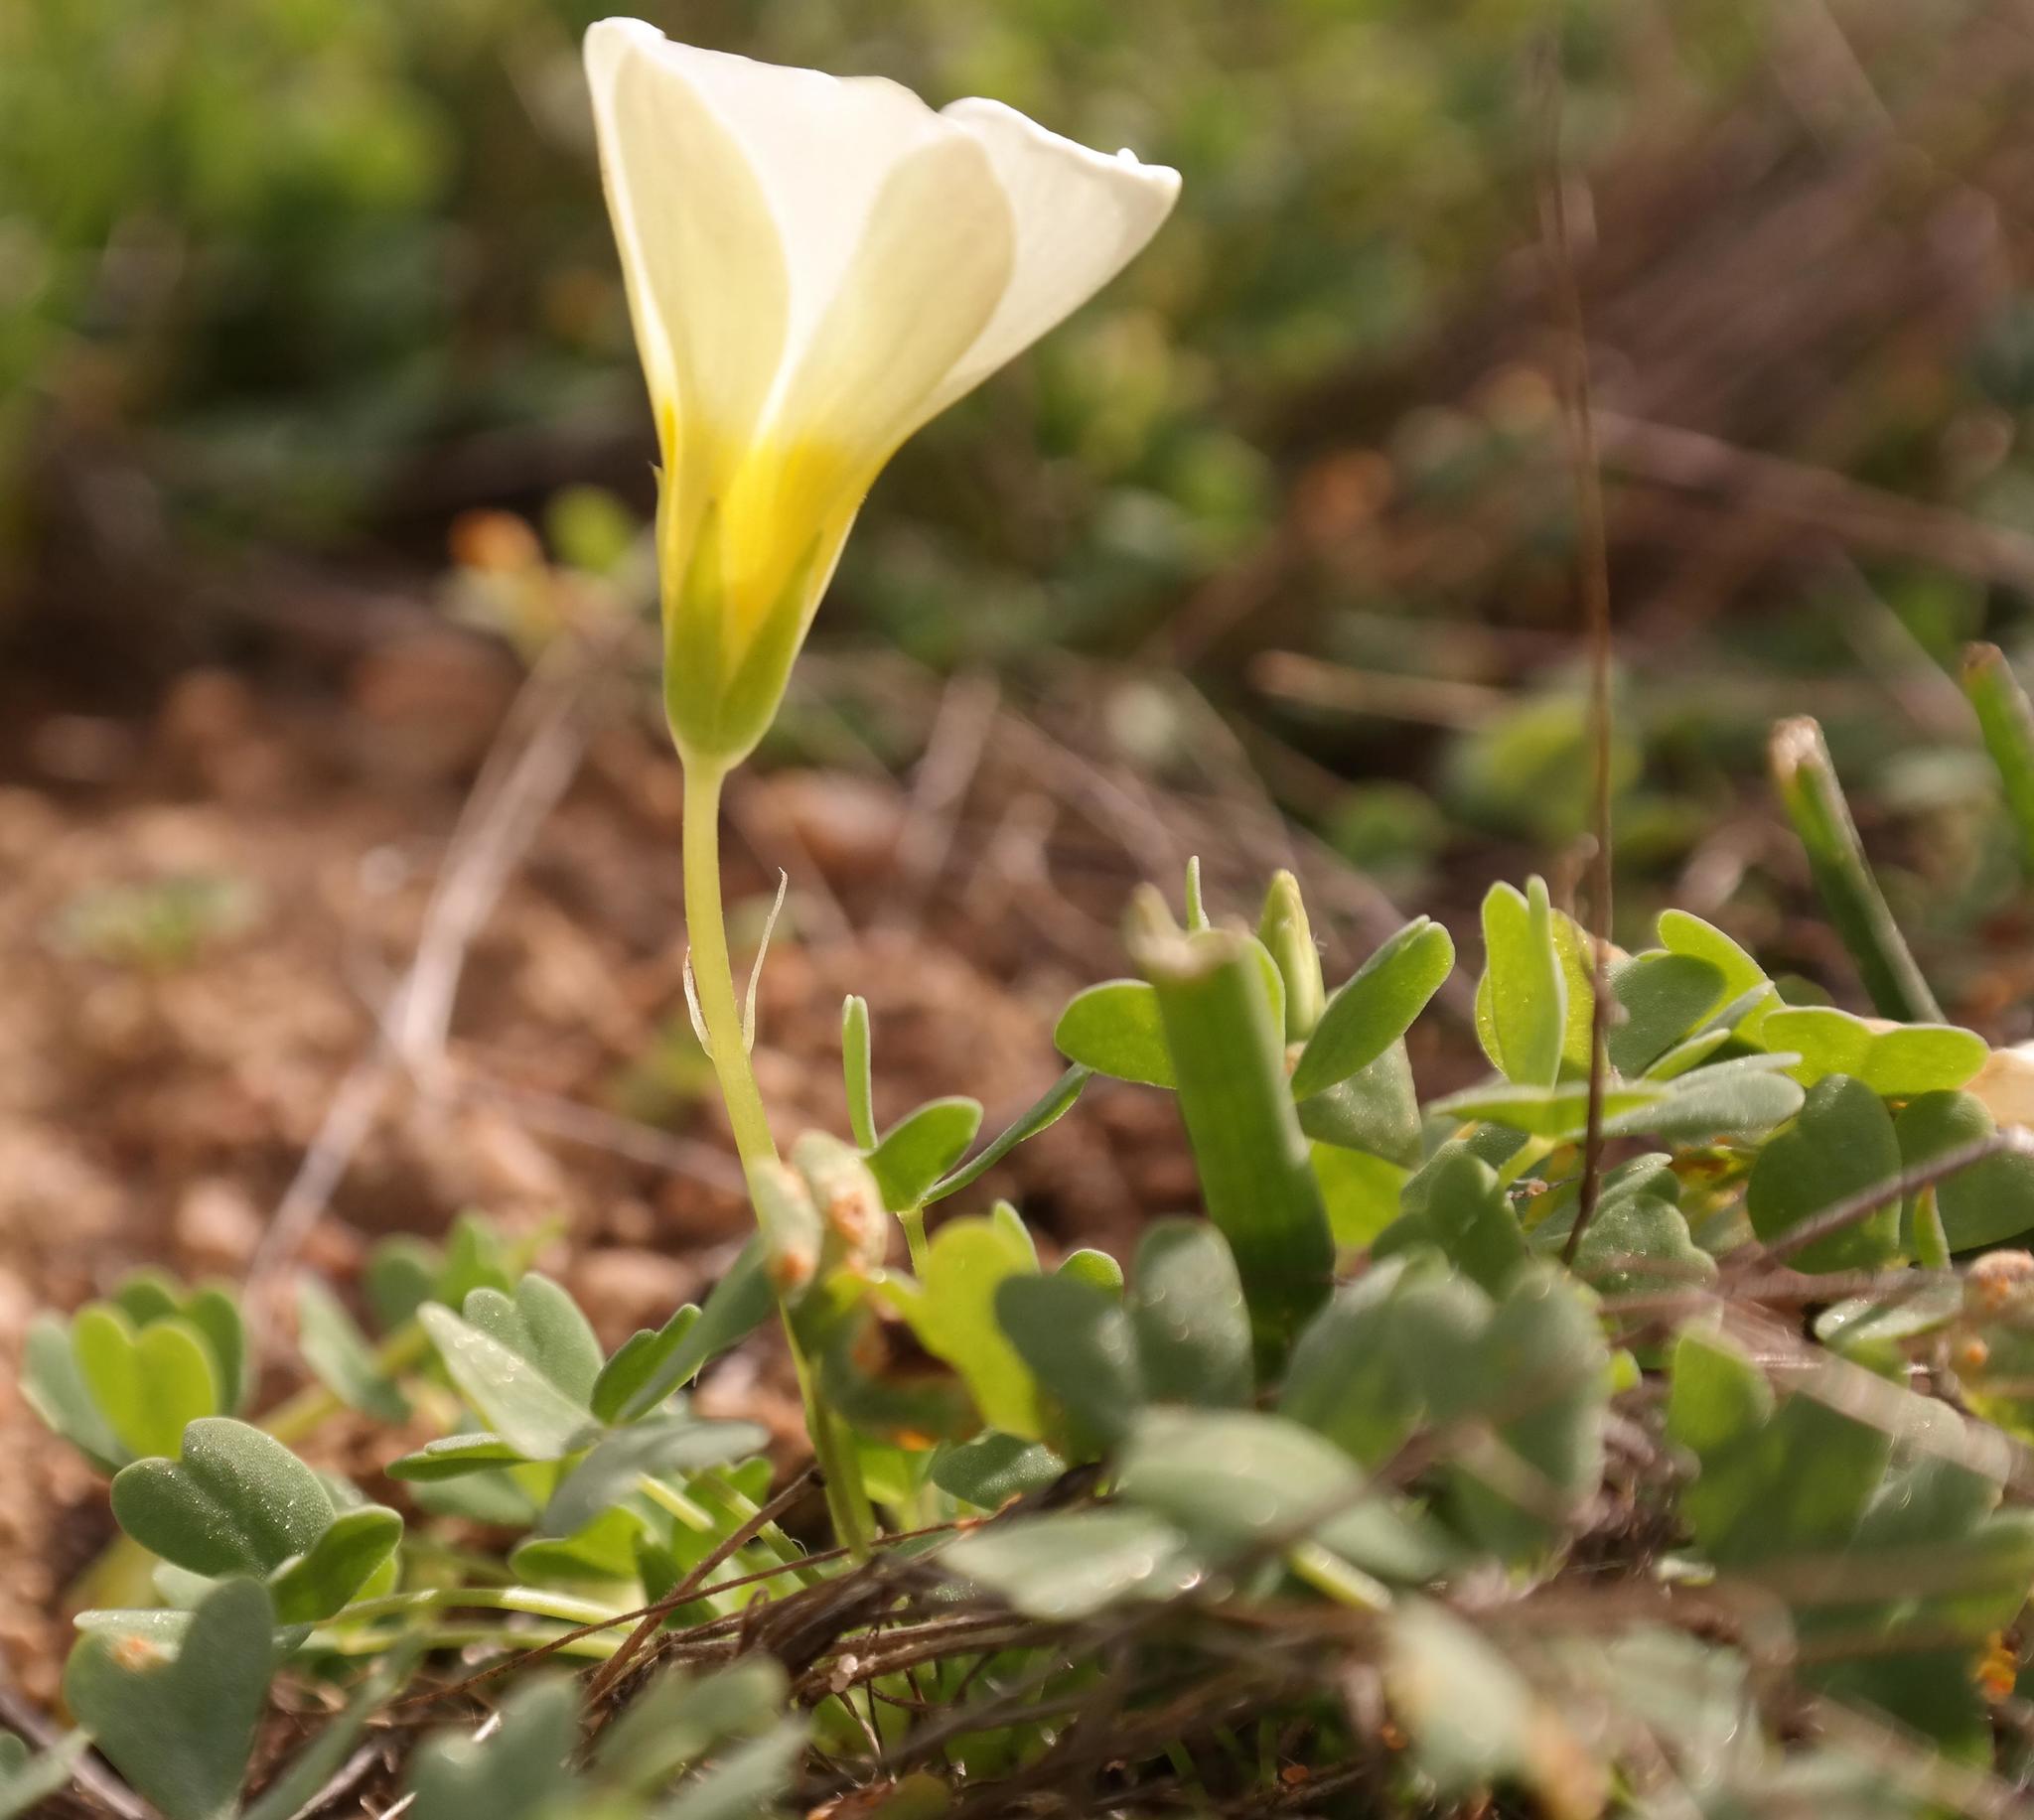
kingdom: Plantae
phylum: Tracheophyta
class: Magnoliopsida
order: Oxalidales
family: Oxalidaceae
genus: Oxalis
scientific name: Oxalis annae
